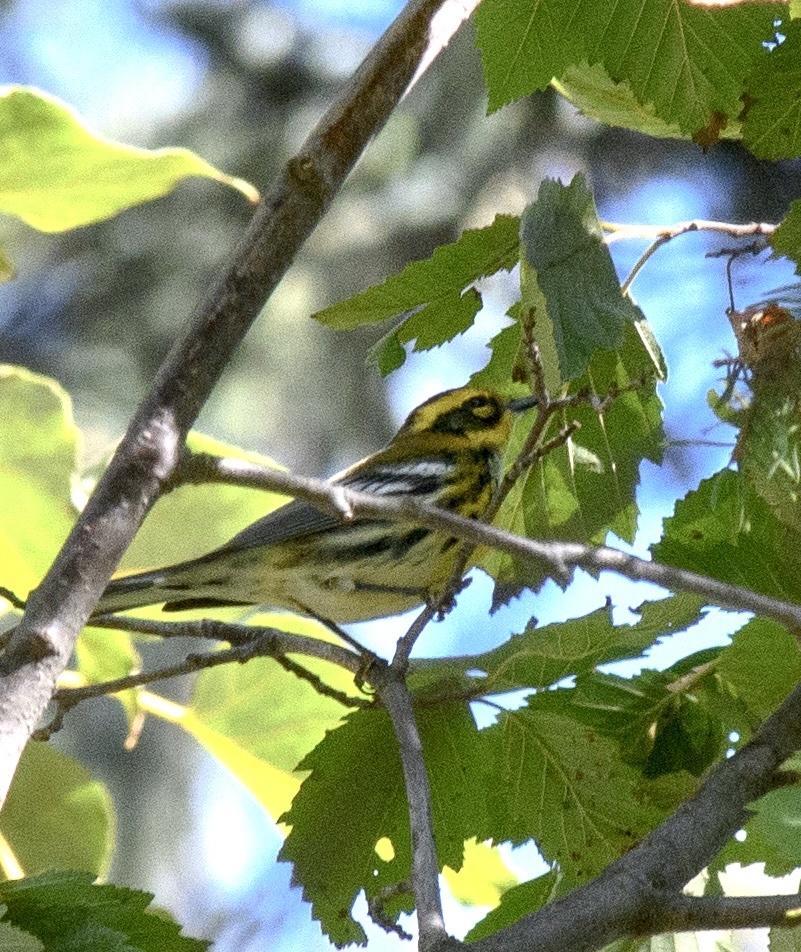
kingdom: Animalia
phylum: Chordata
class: Aves
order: Passeriformes
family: Parulidae
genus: Setophaga
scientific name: Setophaga townsendi
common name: Townsend's warbler
